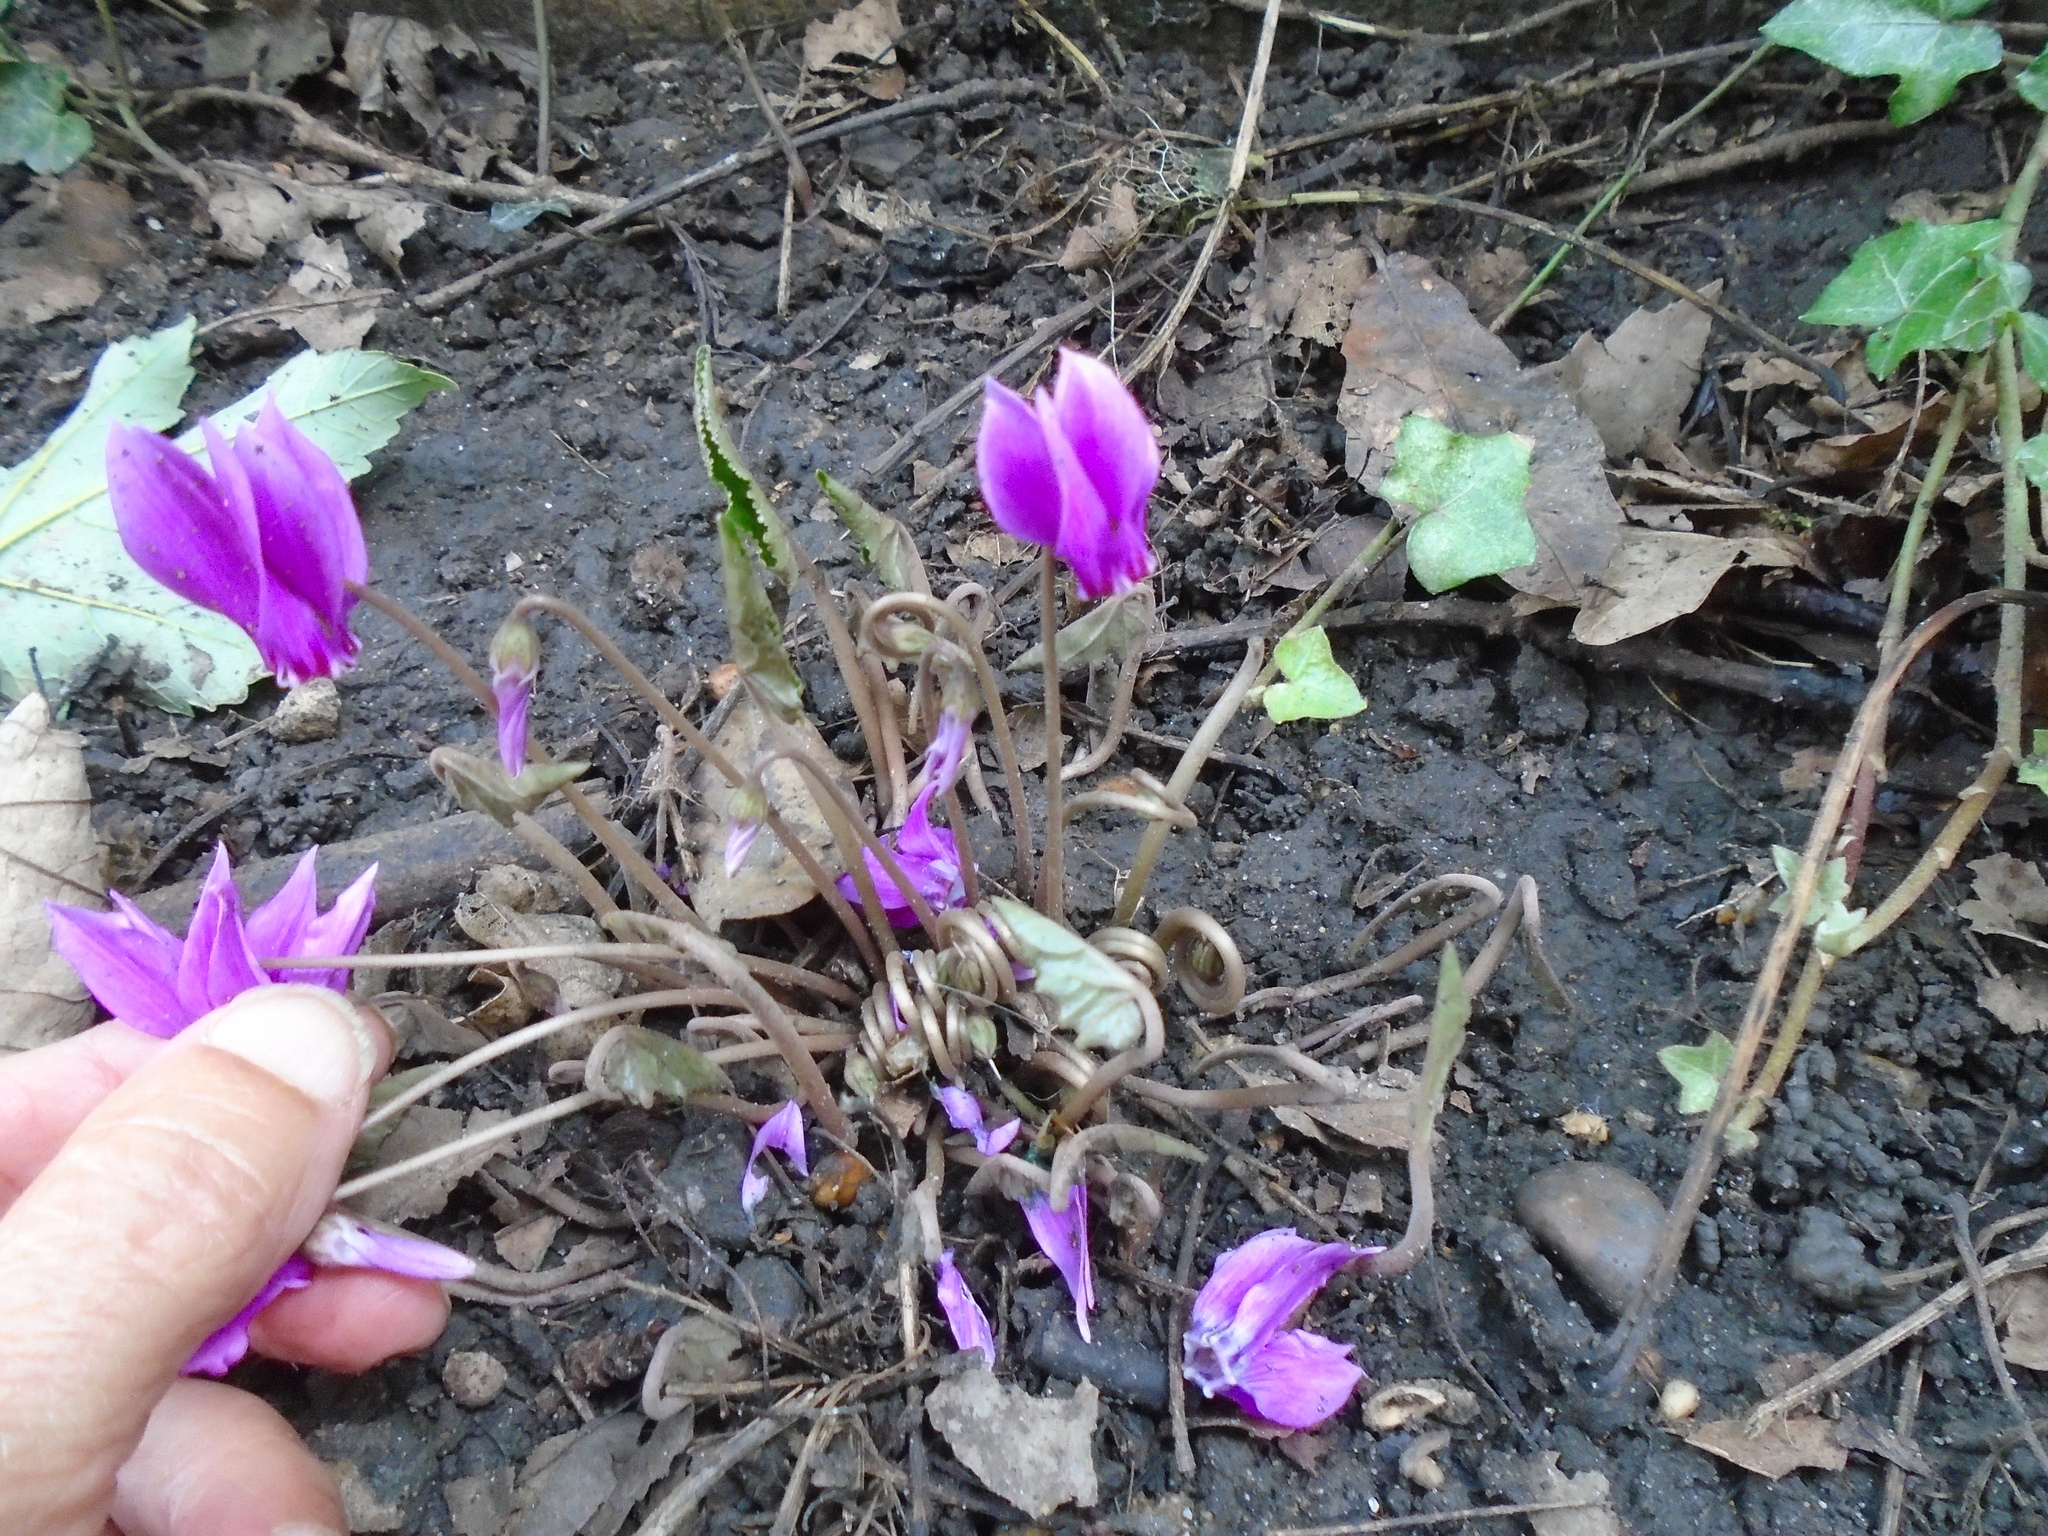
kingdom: Plantae
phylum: Tracheophyta
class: Magnoliopsida
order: Ericales
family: Primulaceae
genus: Cyclamen
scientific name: Cyclamen hederifolium
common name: Sowbread
